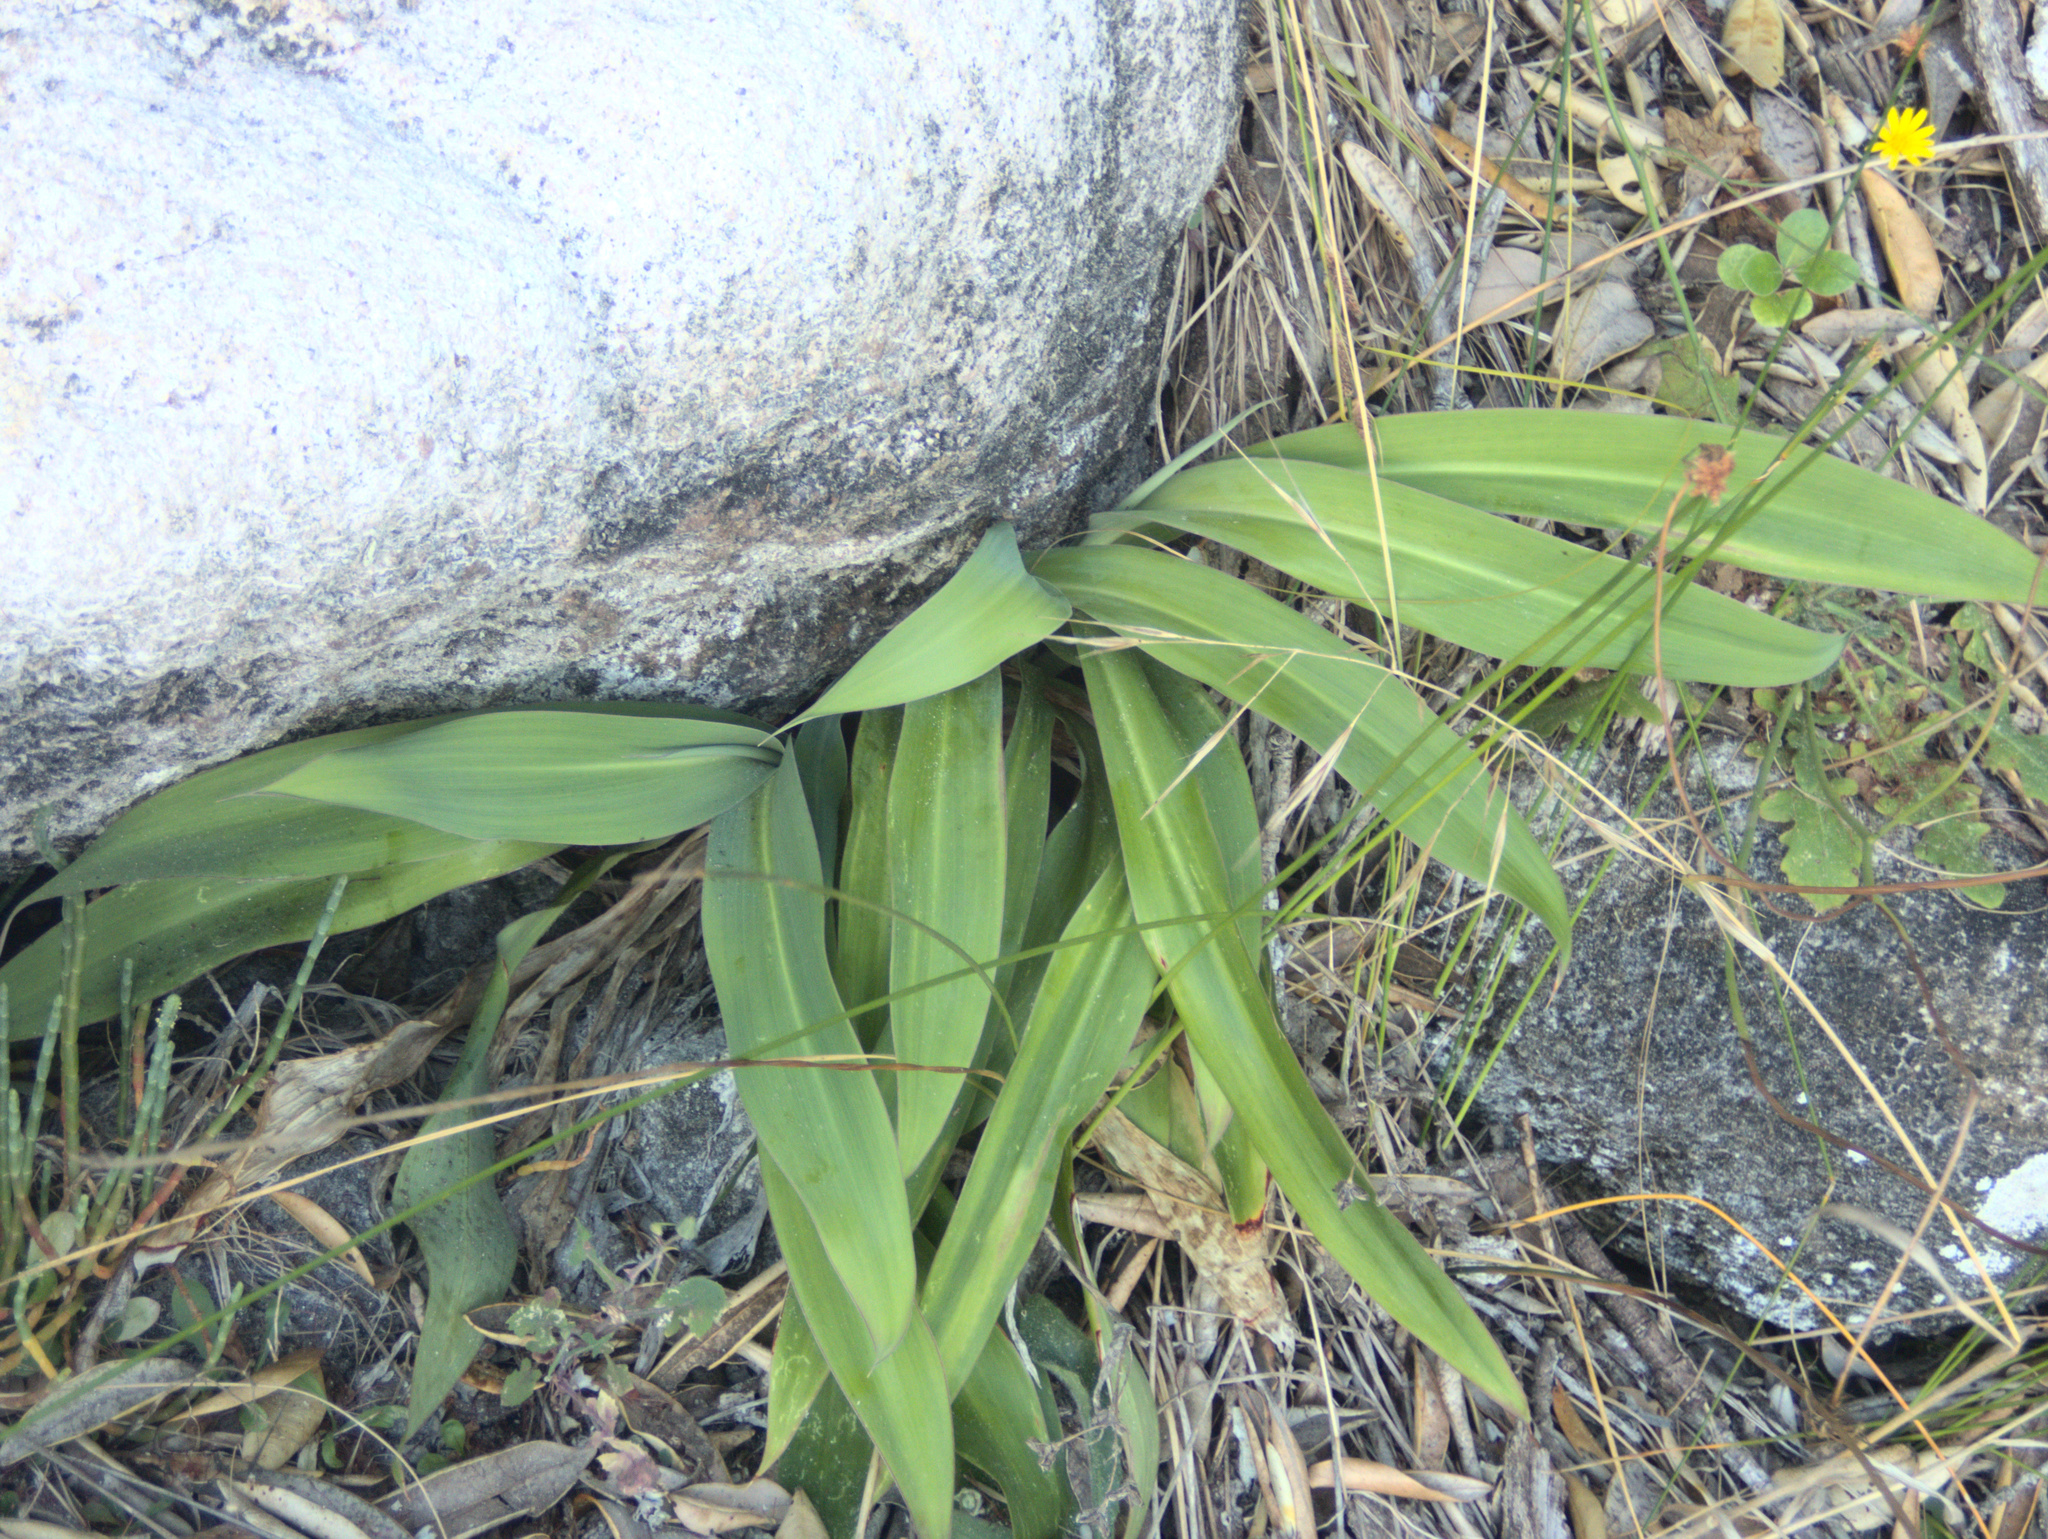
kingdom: Plantae
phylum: Tracheophyta
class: Liliopsida
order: Asparagales
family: Asparagaceae
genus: Arthropodium
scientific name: Arthropodium cirratum
